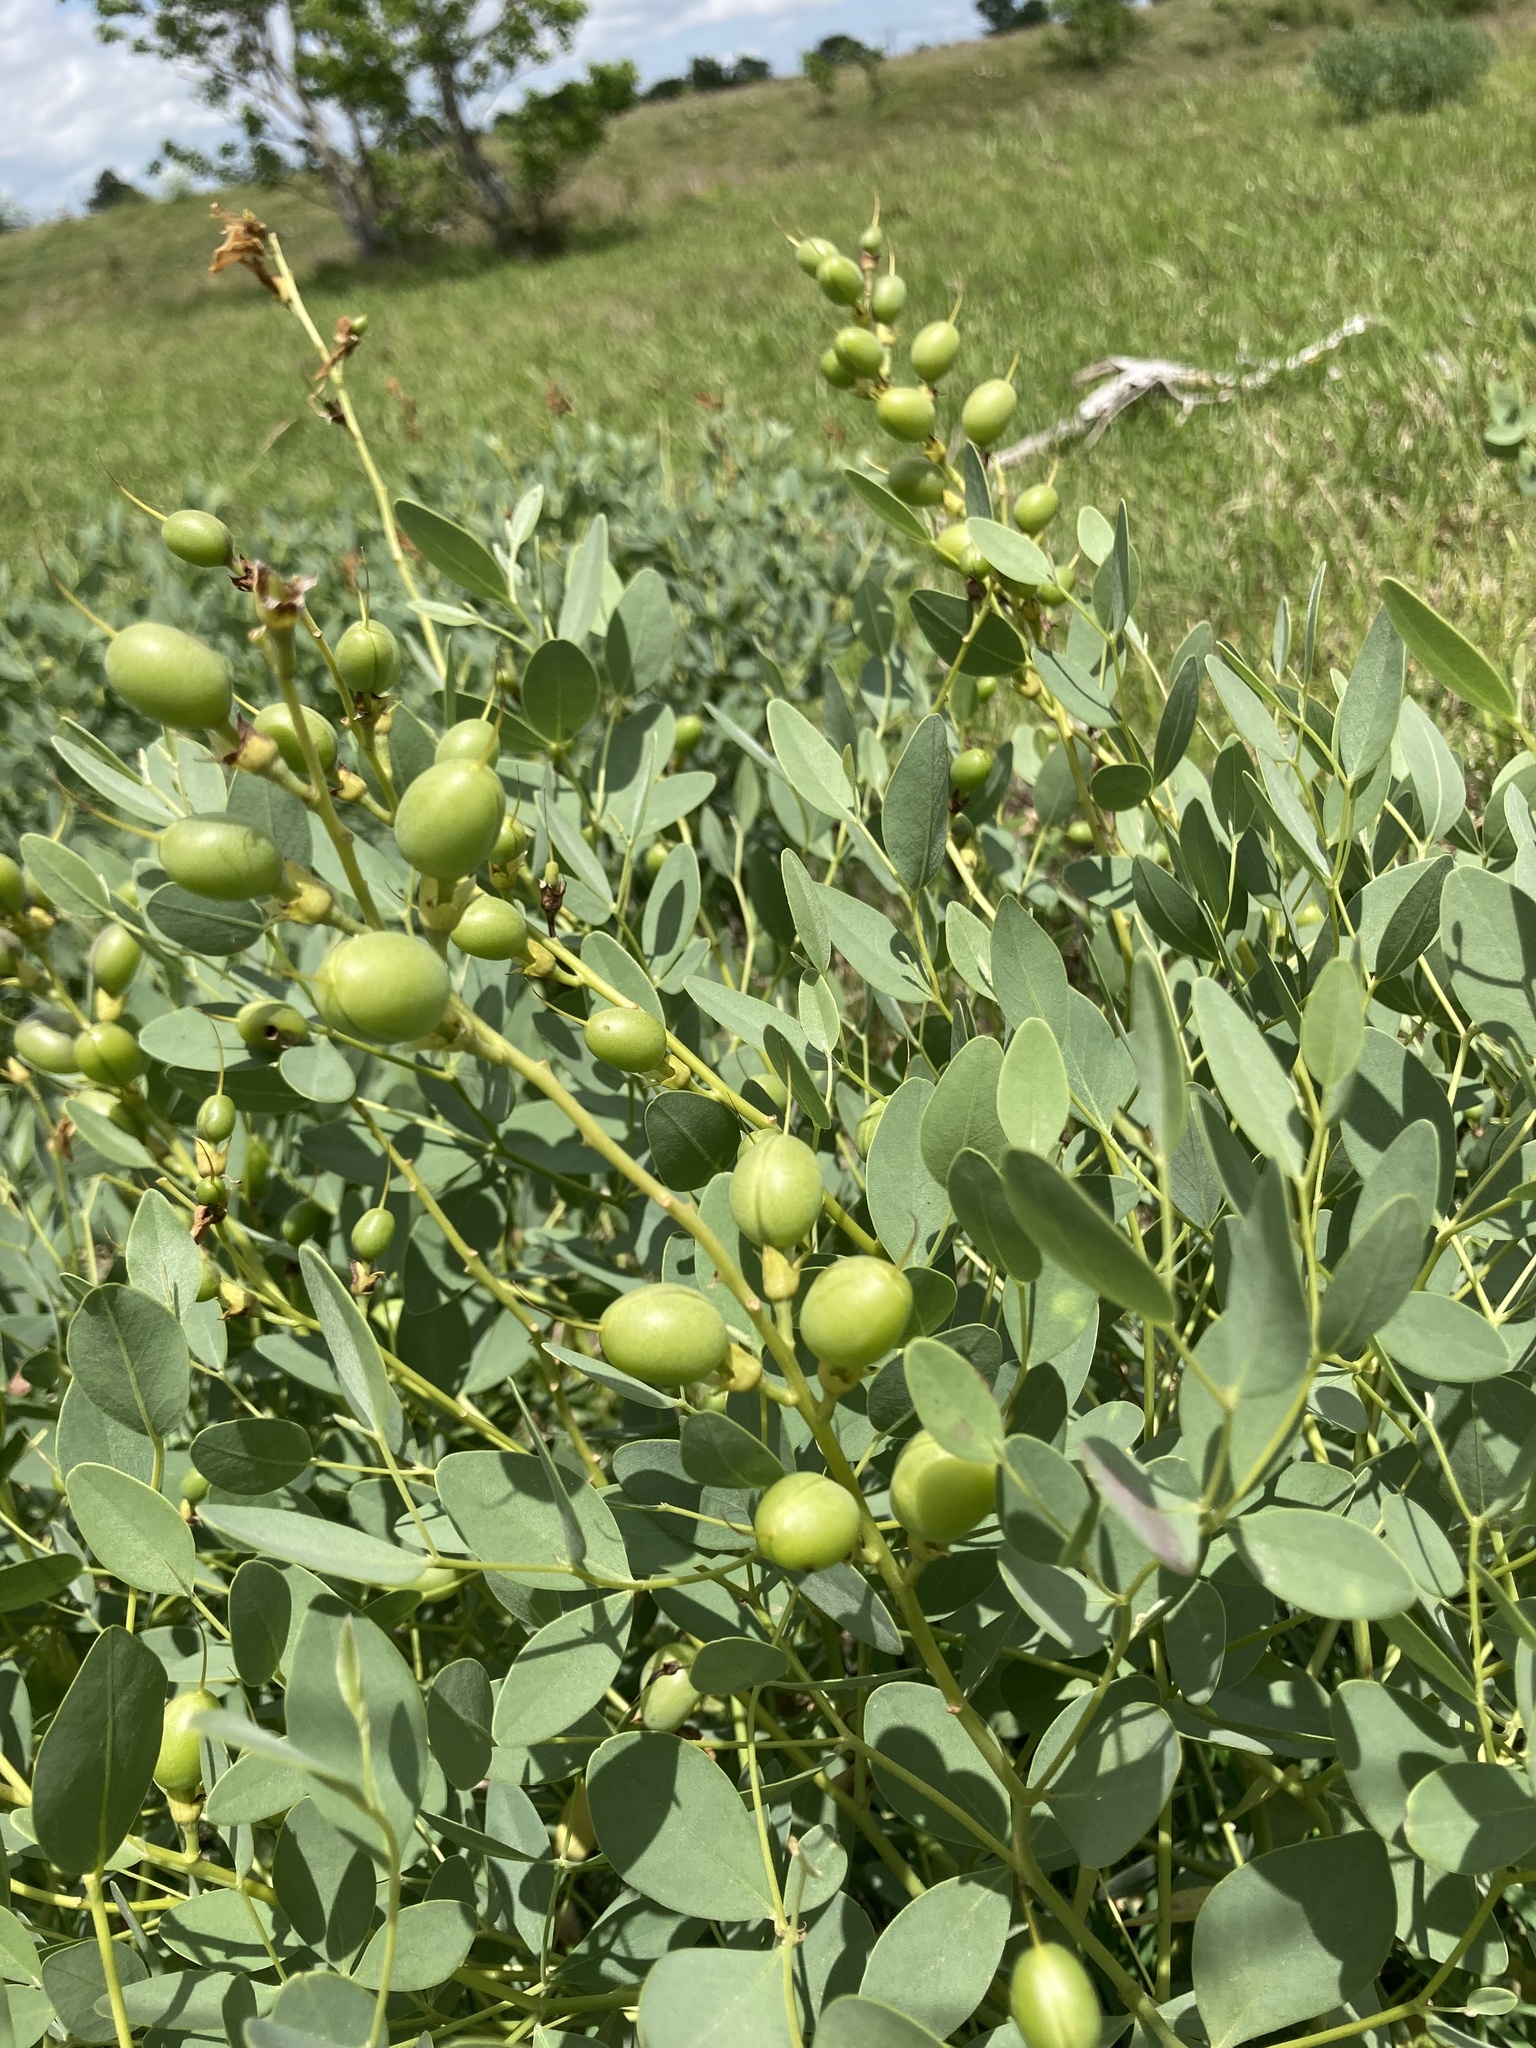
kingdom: Plantae
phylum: Tracheophyta
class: Magnoliopsida
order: Fabales
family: Fabaceae
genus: Baptisia
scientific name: Baptisia sphaerocarpa
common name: Round wild indigo
